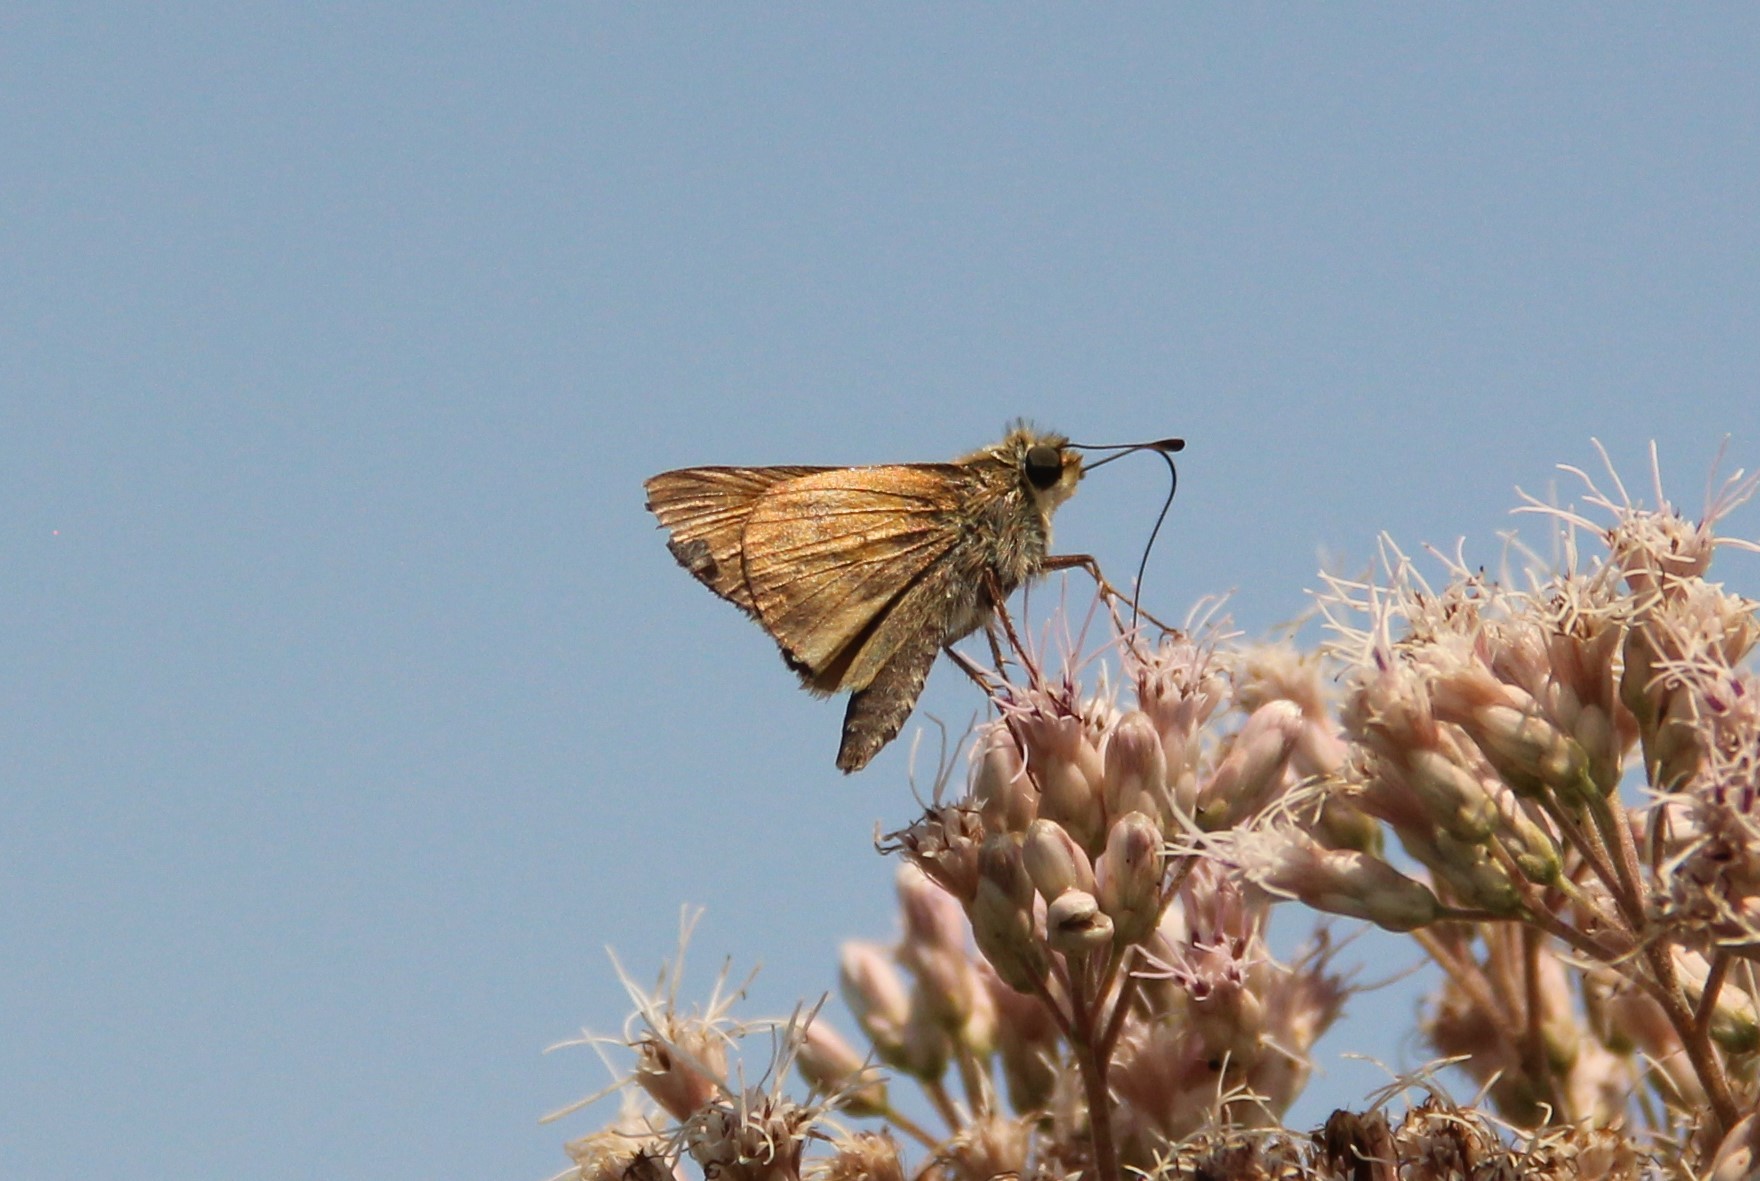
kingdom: Animalia
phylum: Arthropoda
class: Insecta
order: Lepidoptera
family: Hesperiidae
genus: Atalopedes
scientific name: Atalopedes
